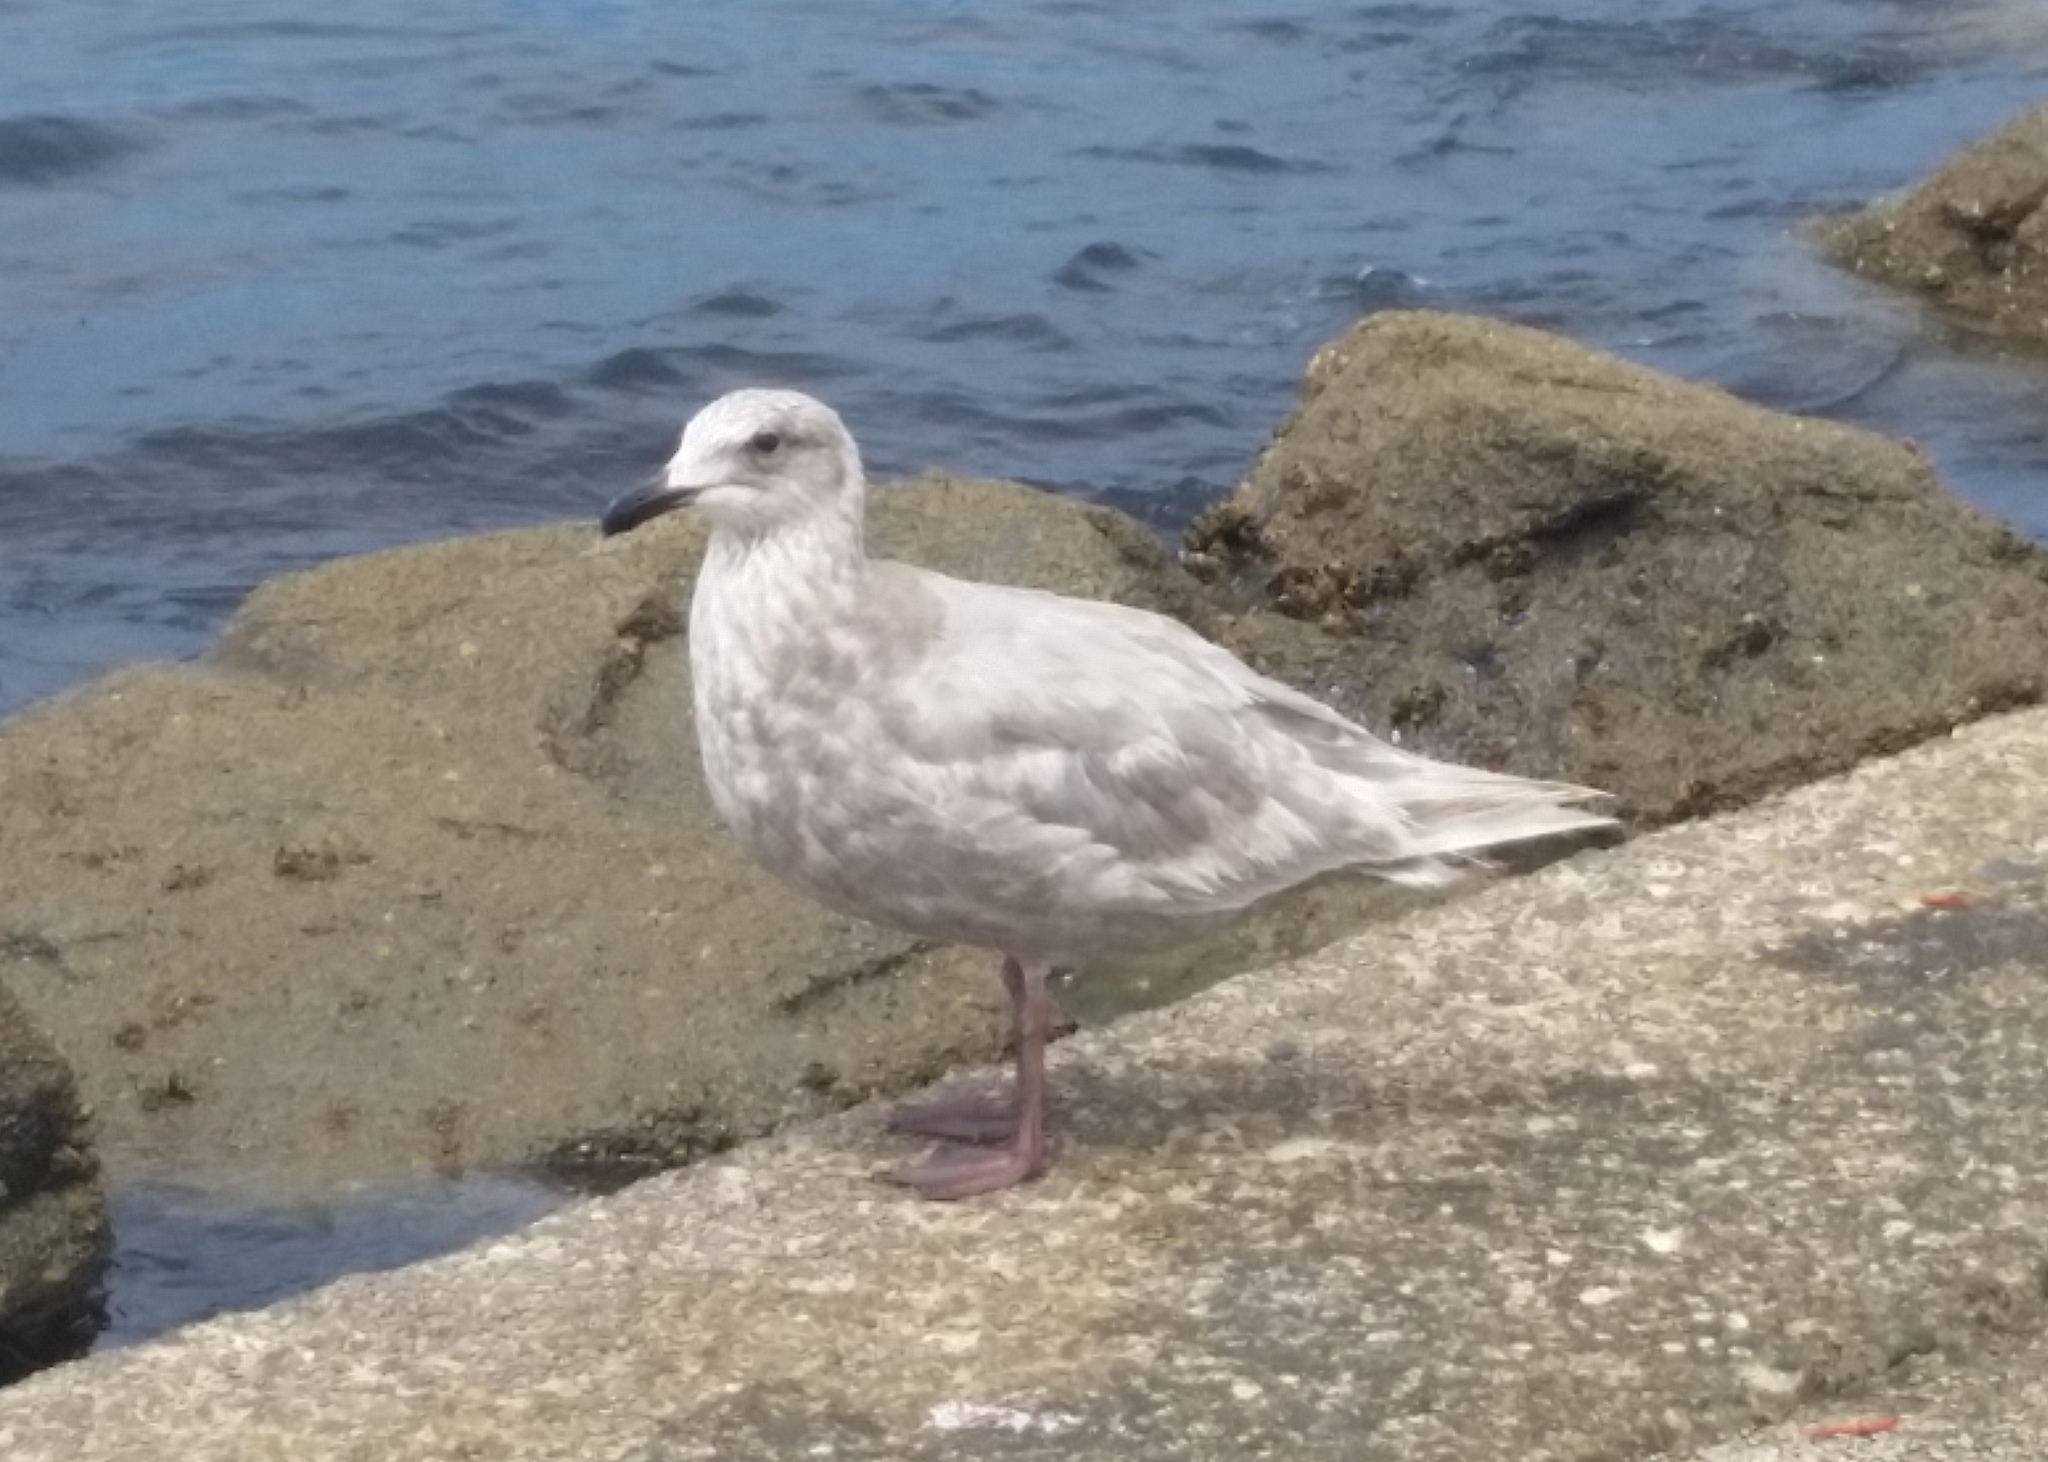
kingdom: Animalia
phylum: Chordata
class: Aves
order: Charadriiformes
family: Laridae
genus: Larus
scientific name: Larus glaucescens
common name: Glaucous-winged gull
